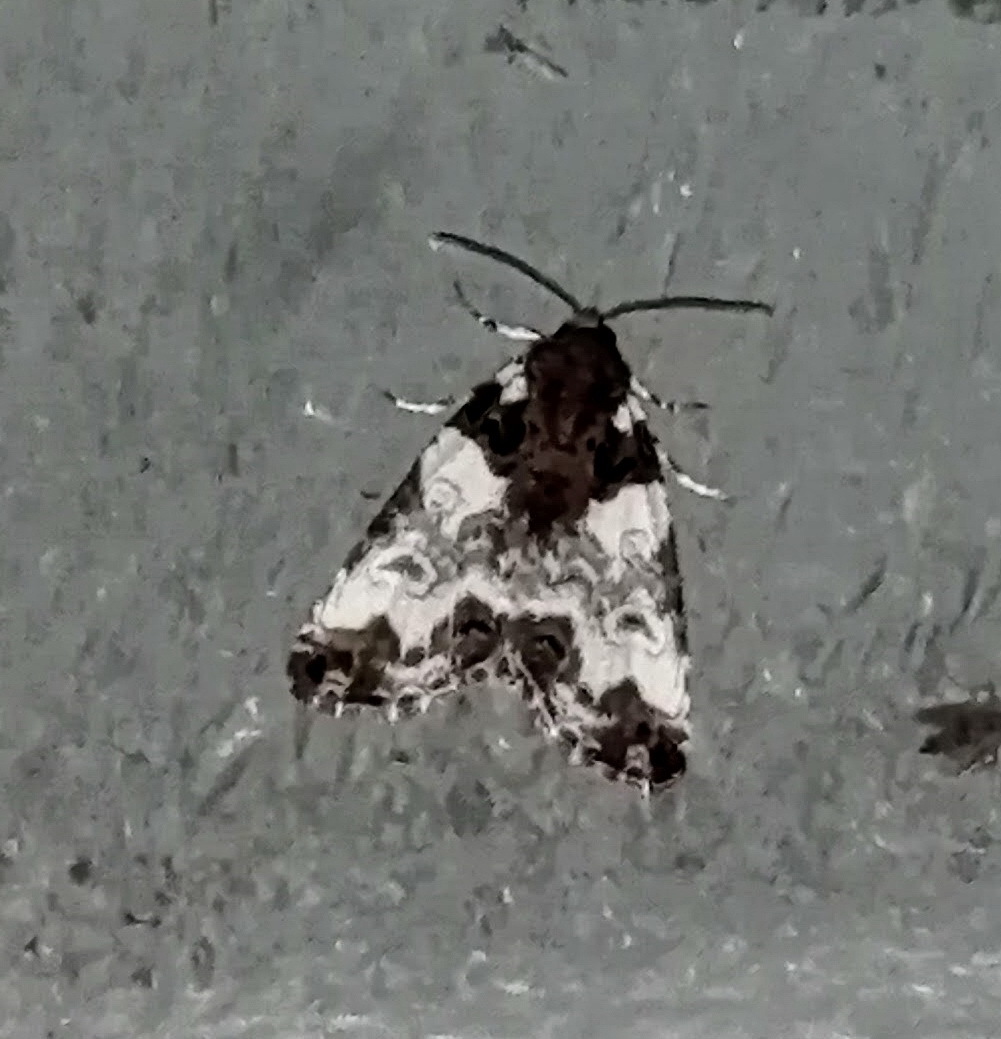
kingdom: Animalia
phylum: Arthropoda
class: Insecta
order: Lepidoptera
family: Noctuidae
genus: Cerma
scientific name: Cerma cerintha
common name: Tufted bird-dropping moth
